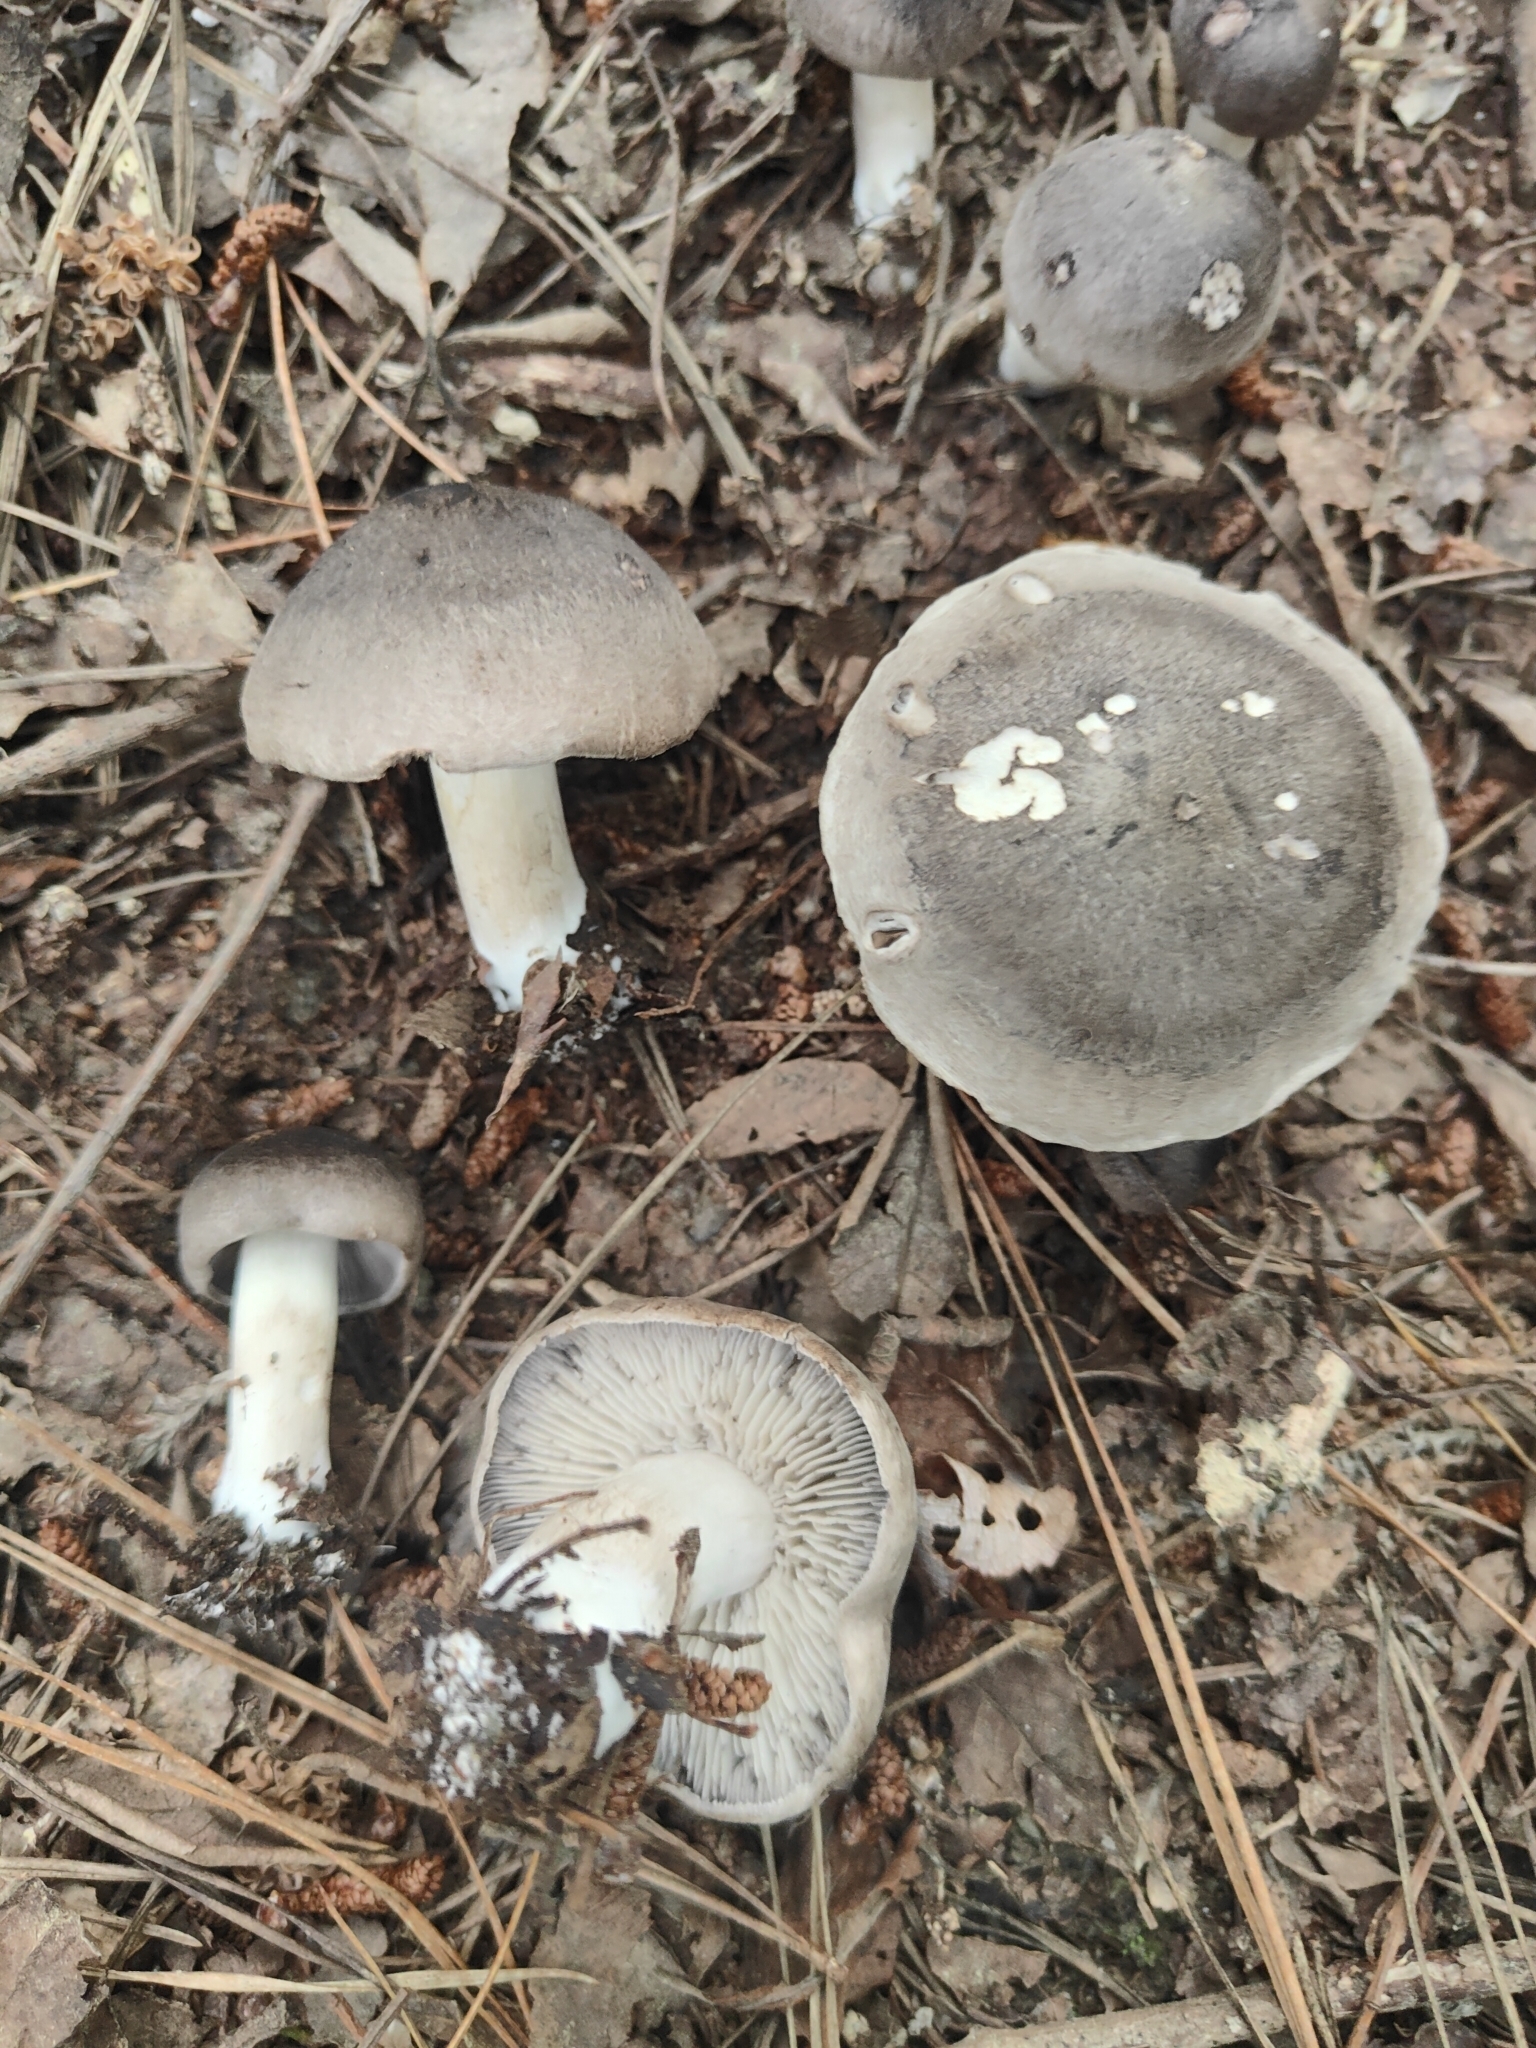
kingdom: Fungi
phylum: Basidiomycota
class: Agaricomycetes
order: Agaricales
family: Tricholomataceae
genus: Tricholoma
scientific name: Tricholoma terreum
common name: Grey knight
